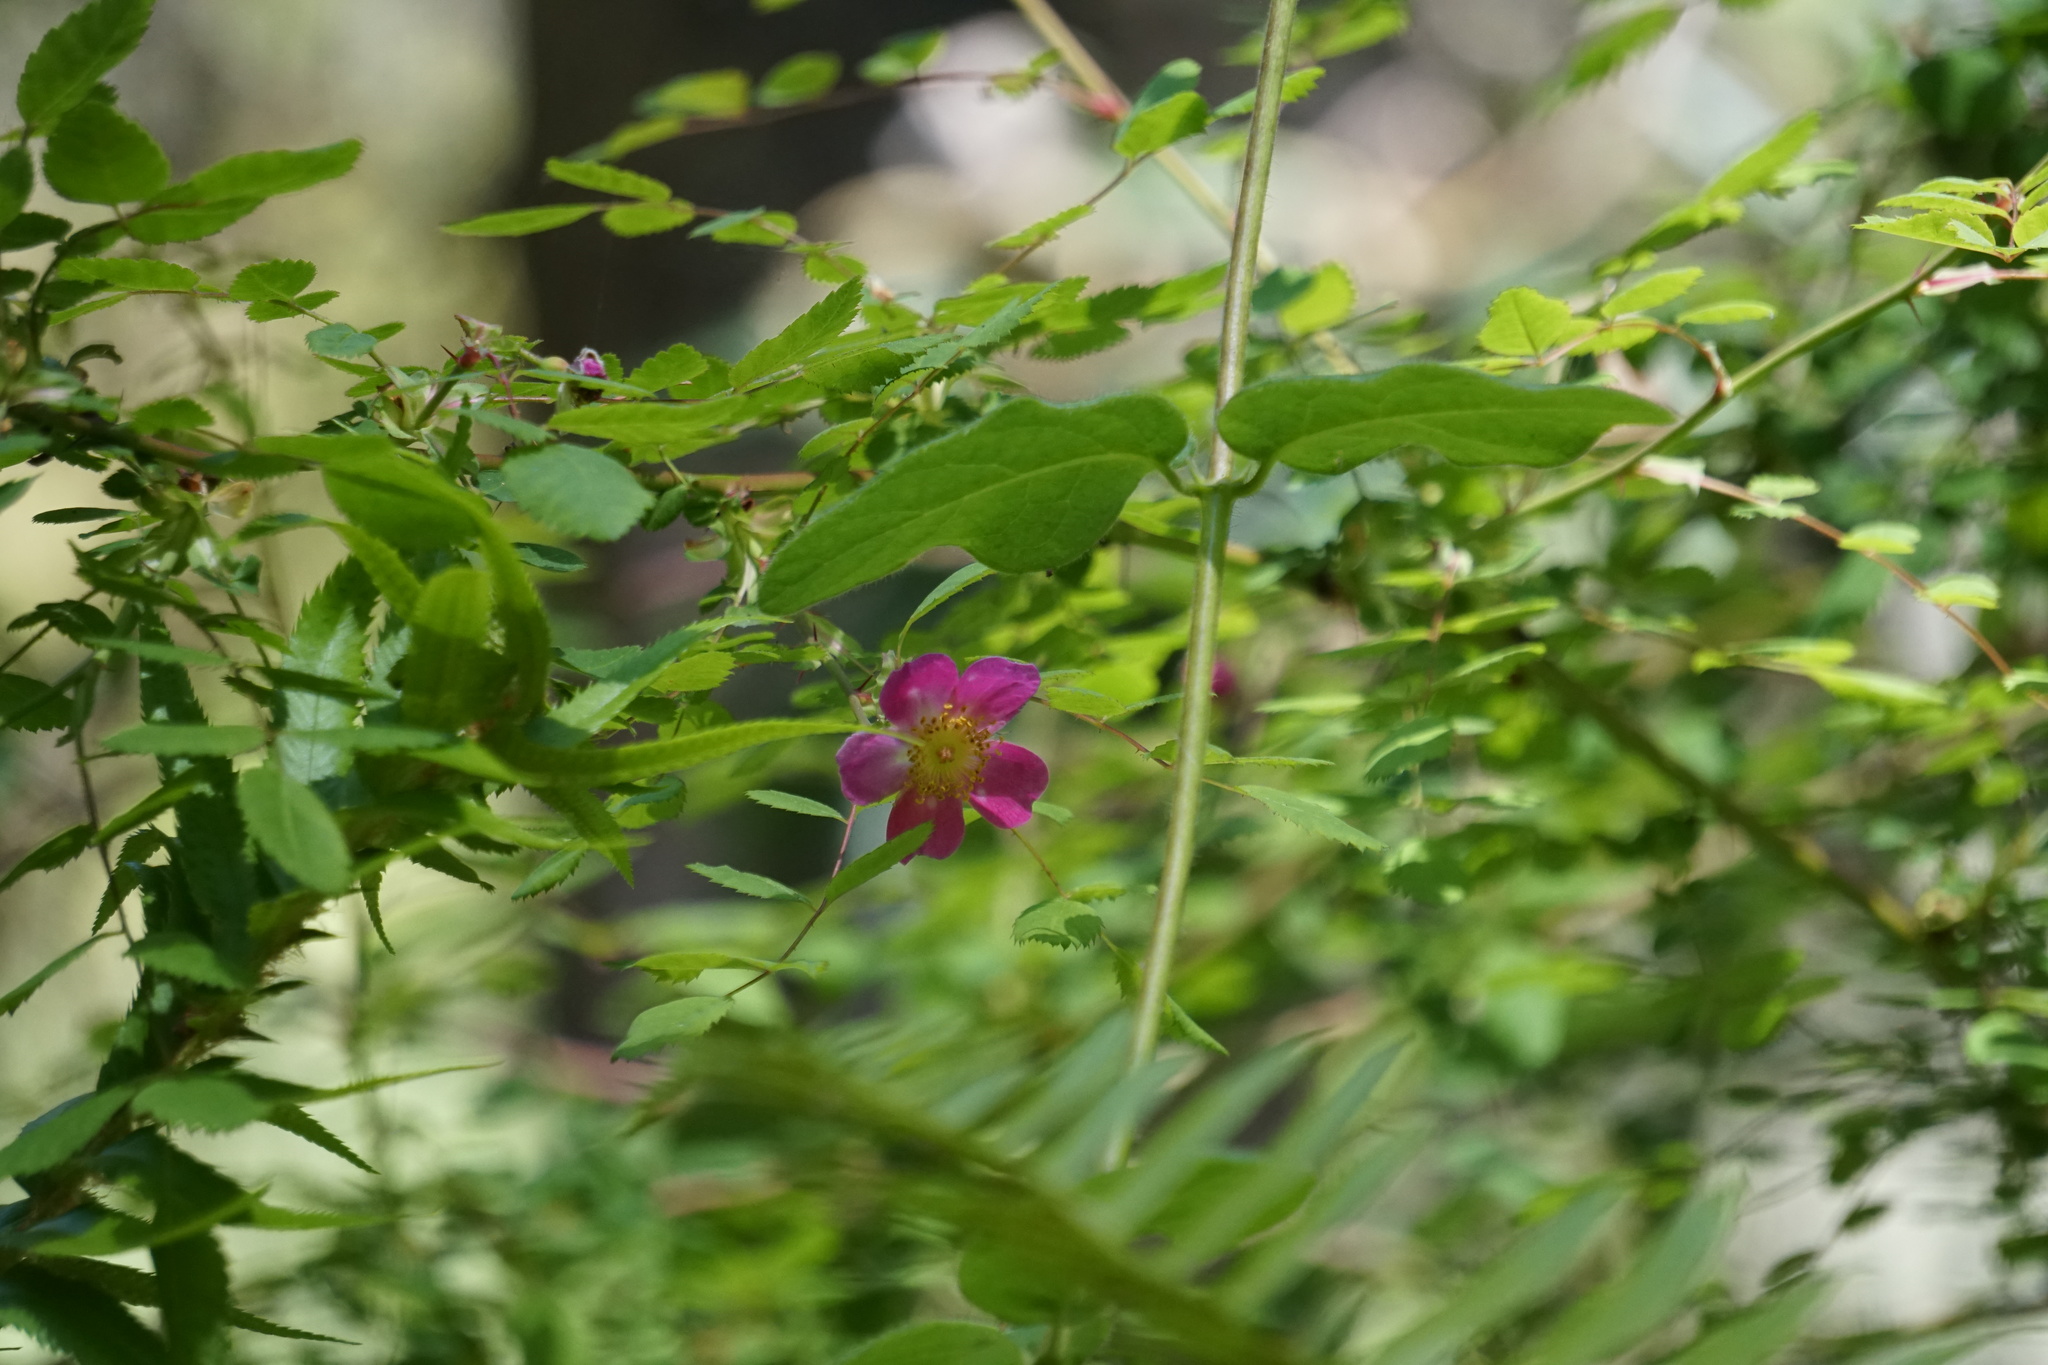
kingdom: Plantae
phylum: Tracheophyta
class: Magnoliopsida
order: Rosales
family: Rosaceae
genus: Rosa
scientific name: Rosa gymnocarpa
